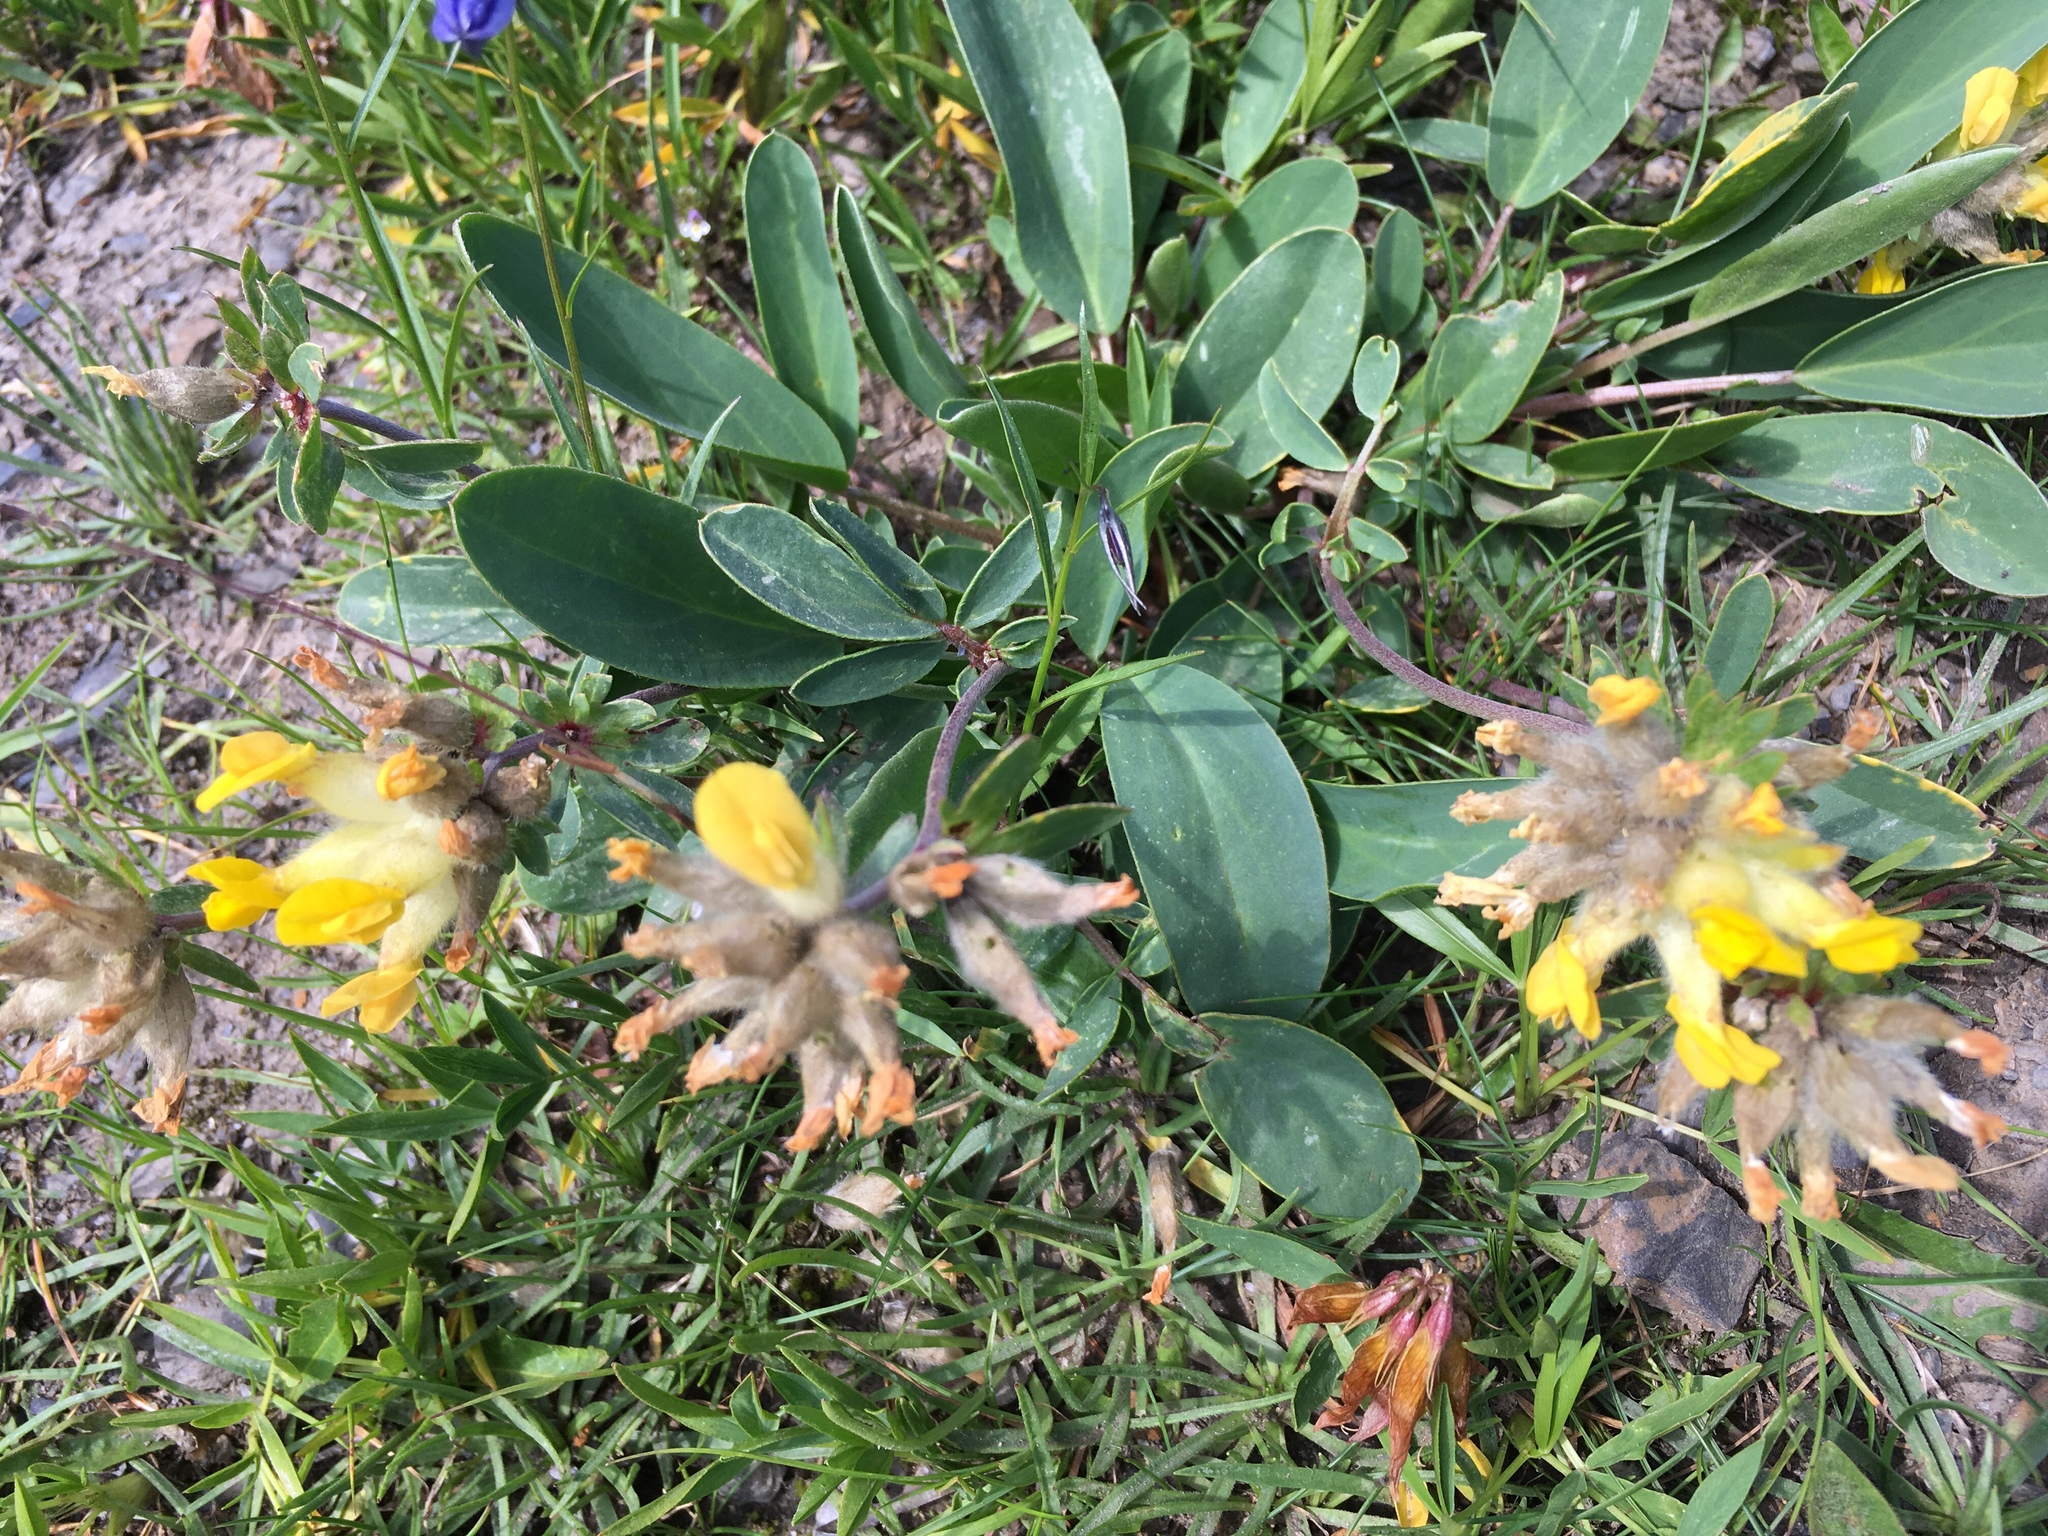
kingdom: Plantae
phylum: Tracheophyta
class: Magnoliopsida
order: Fabales
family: Fabaceae
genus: Anthyllis
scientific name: Anthyllis vulneraria
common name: Kidney vetch
